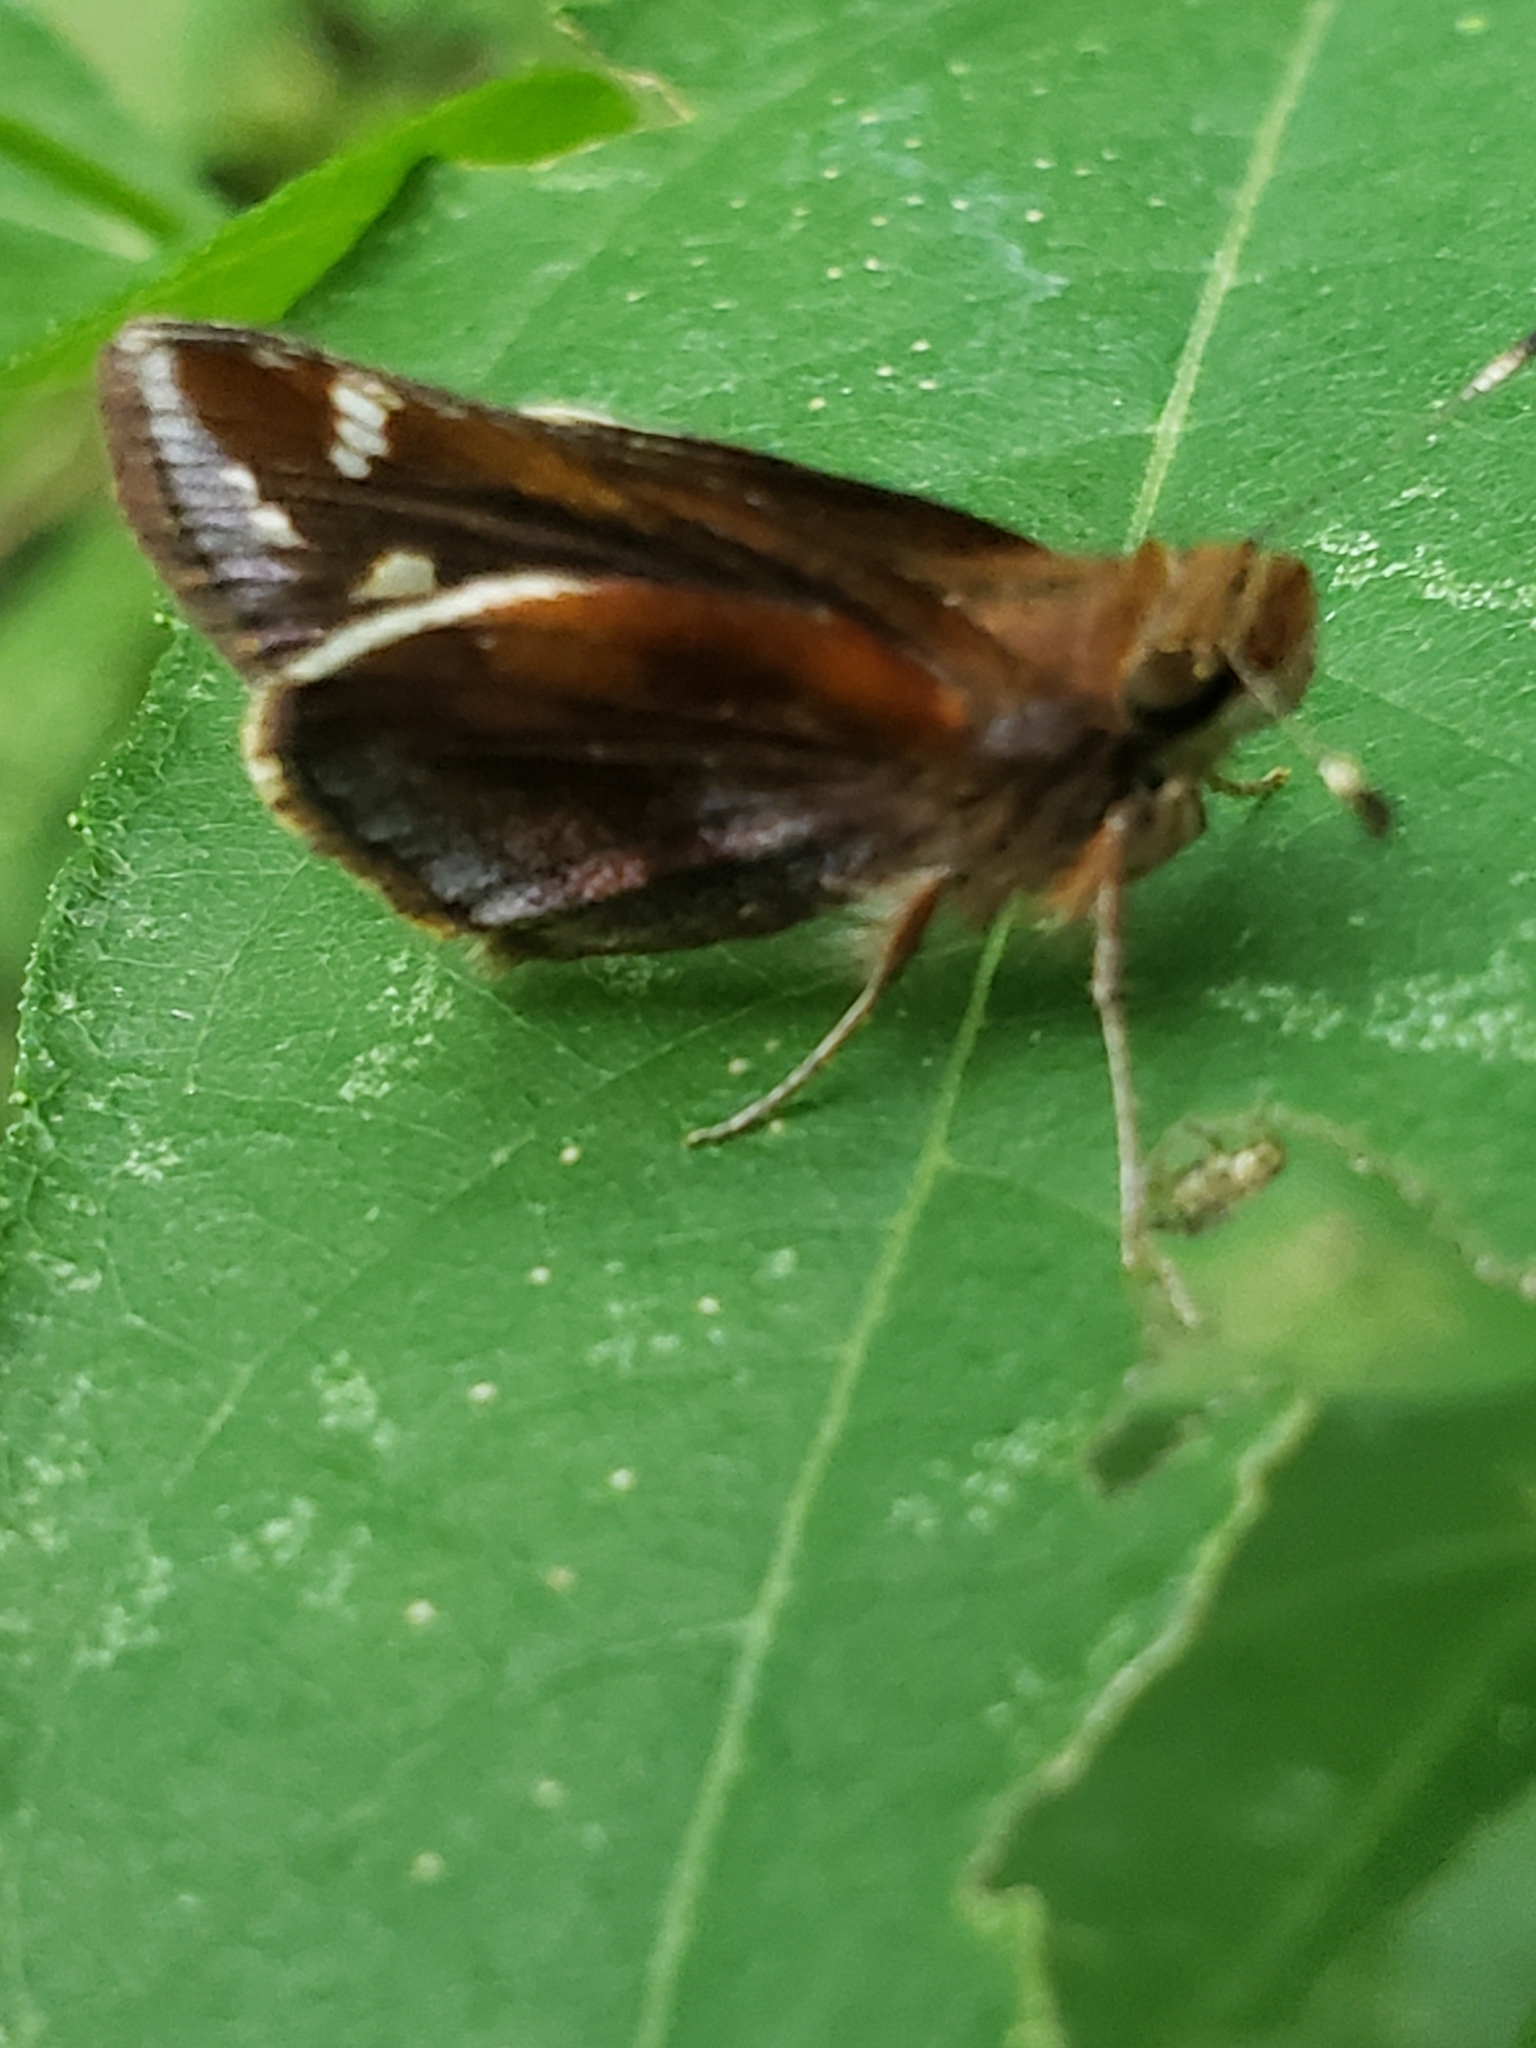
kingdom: Animalia
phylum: Arthropoda
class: Insecta
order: Lepidoptera
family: Hesperiidae
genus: Lon
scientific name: Lon zabulon
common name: Zabulon skipper
